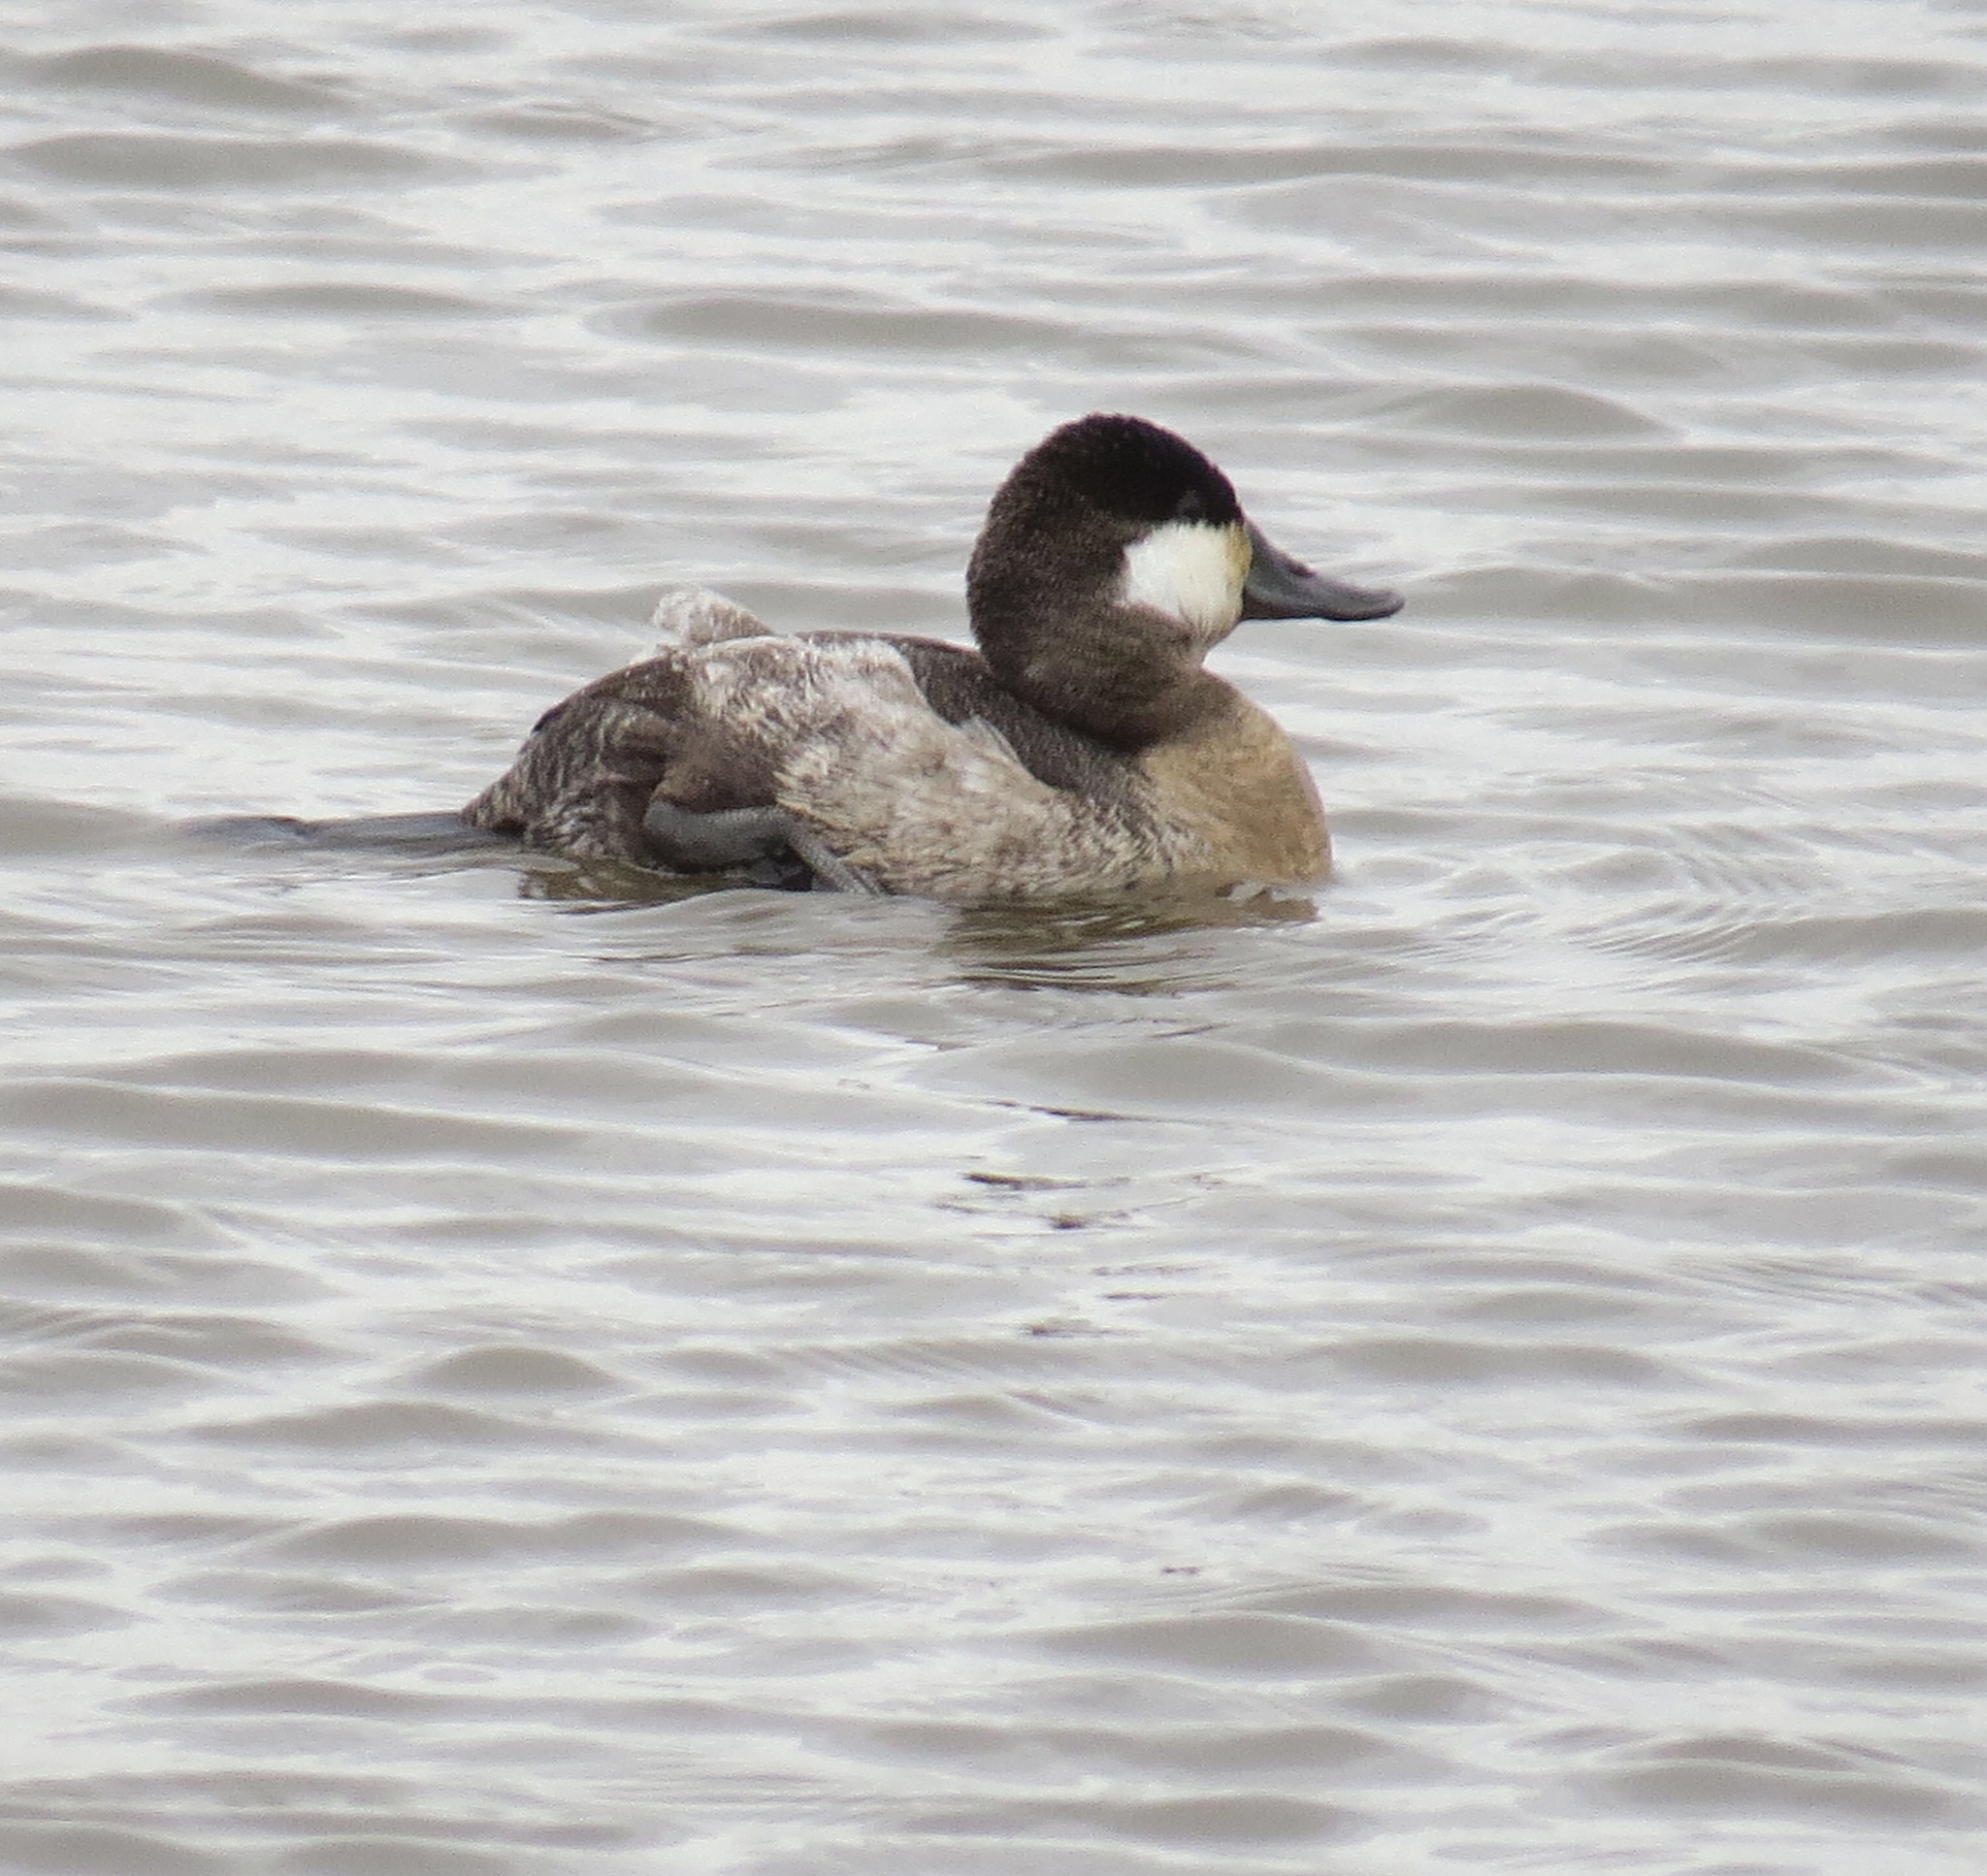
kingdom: Animalia
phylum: Chordata
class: Aves
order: Anseriformes
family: Anatidae
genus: Oxyura
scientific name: Oxyura jamaicensis
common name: Ruddy duck
